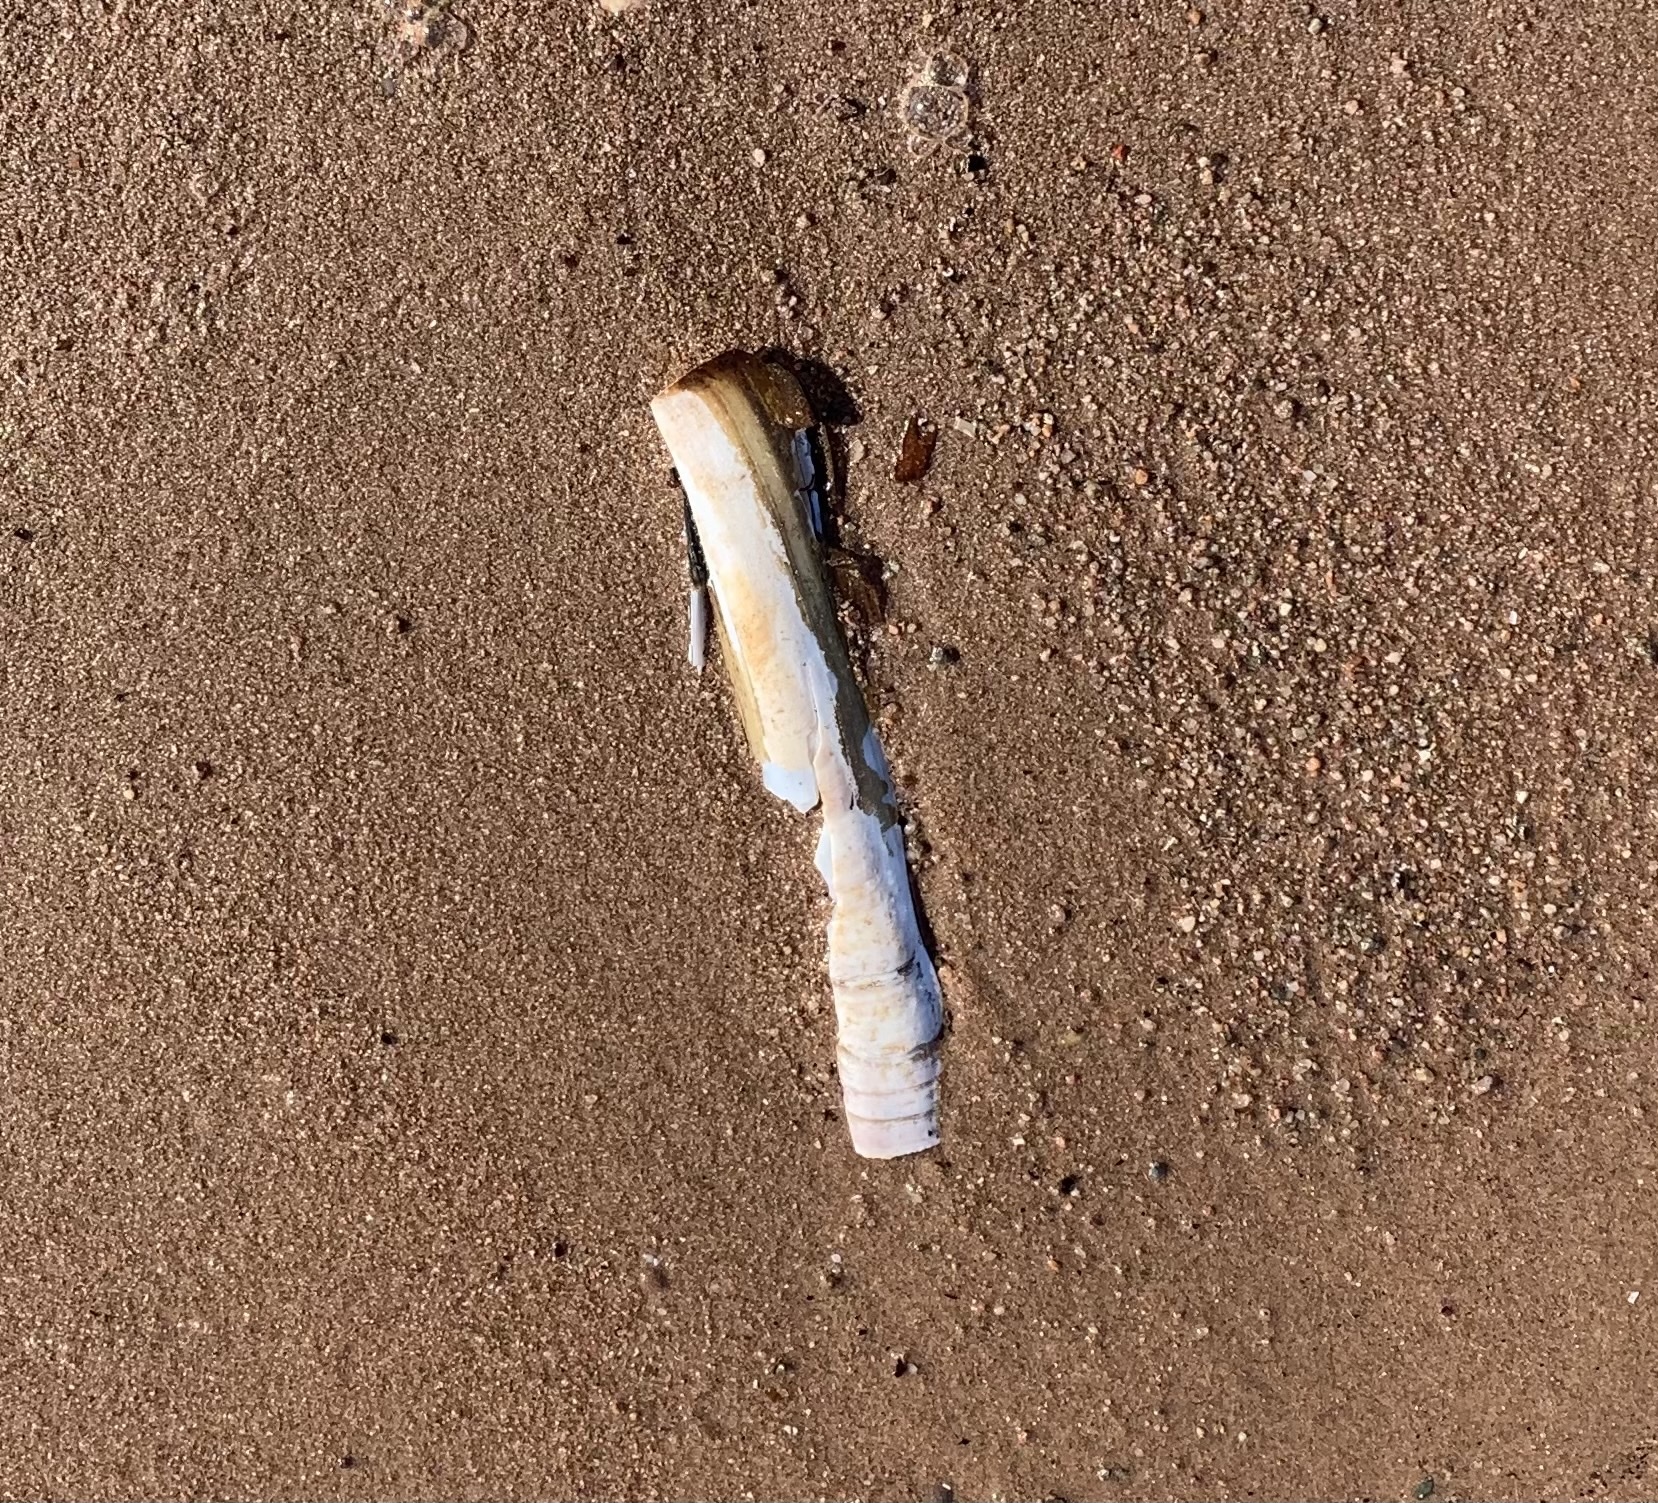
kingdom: Animalia
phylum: Mollusca
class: Bivalvia
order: Adapedonta
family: Pharidae
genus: Ensis
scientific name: Ensis leei
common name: American jack knife clam
